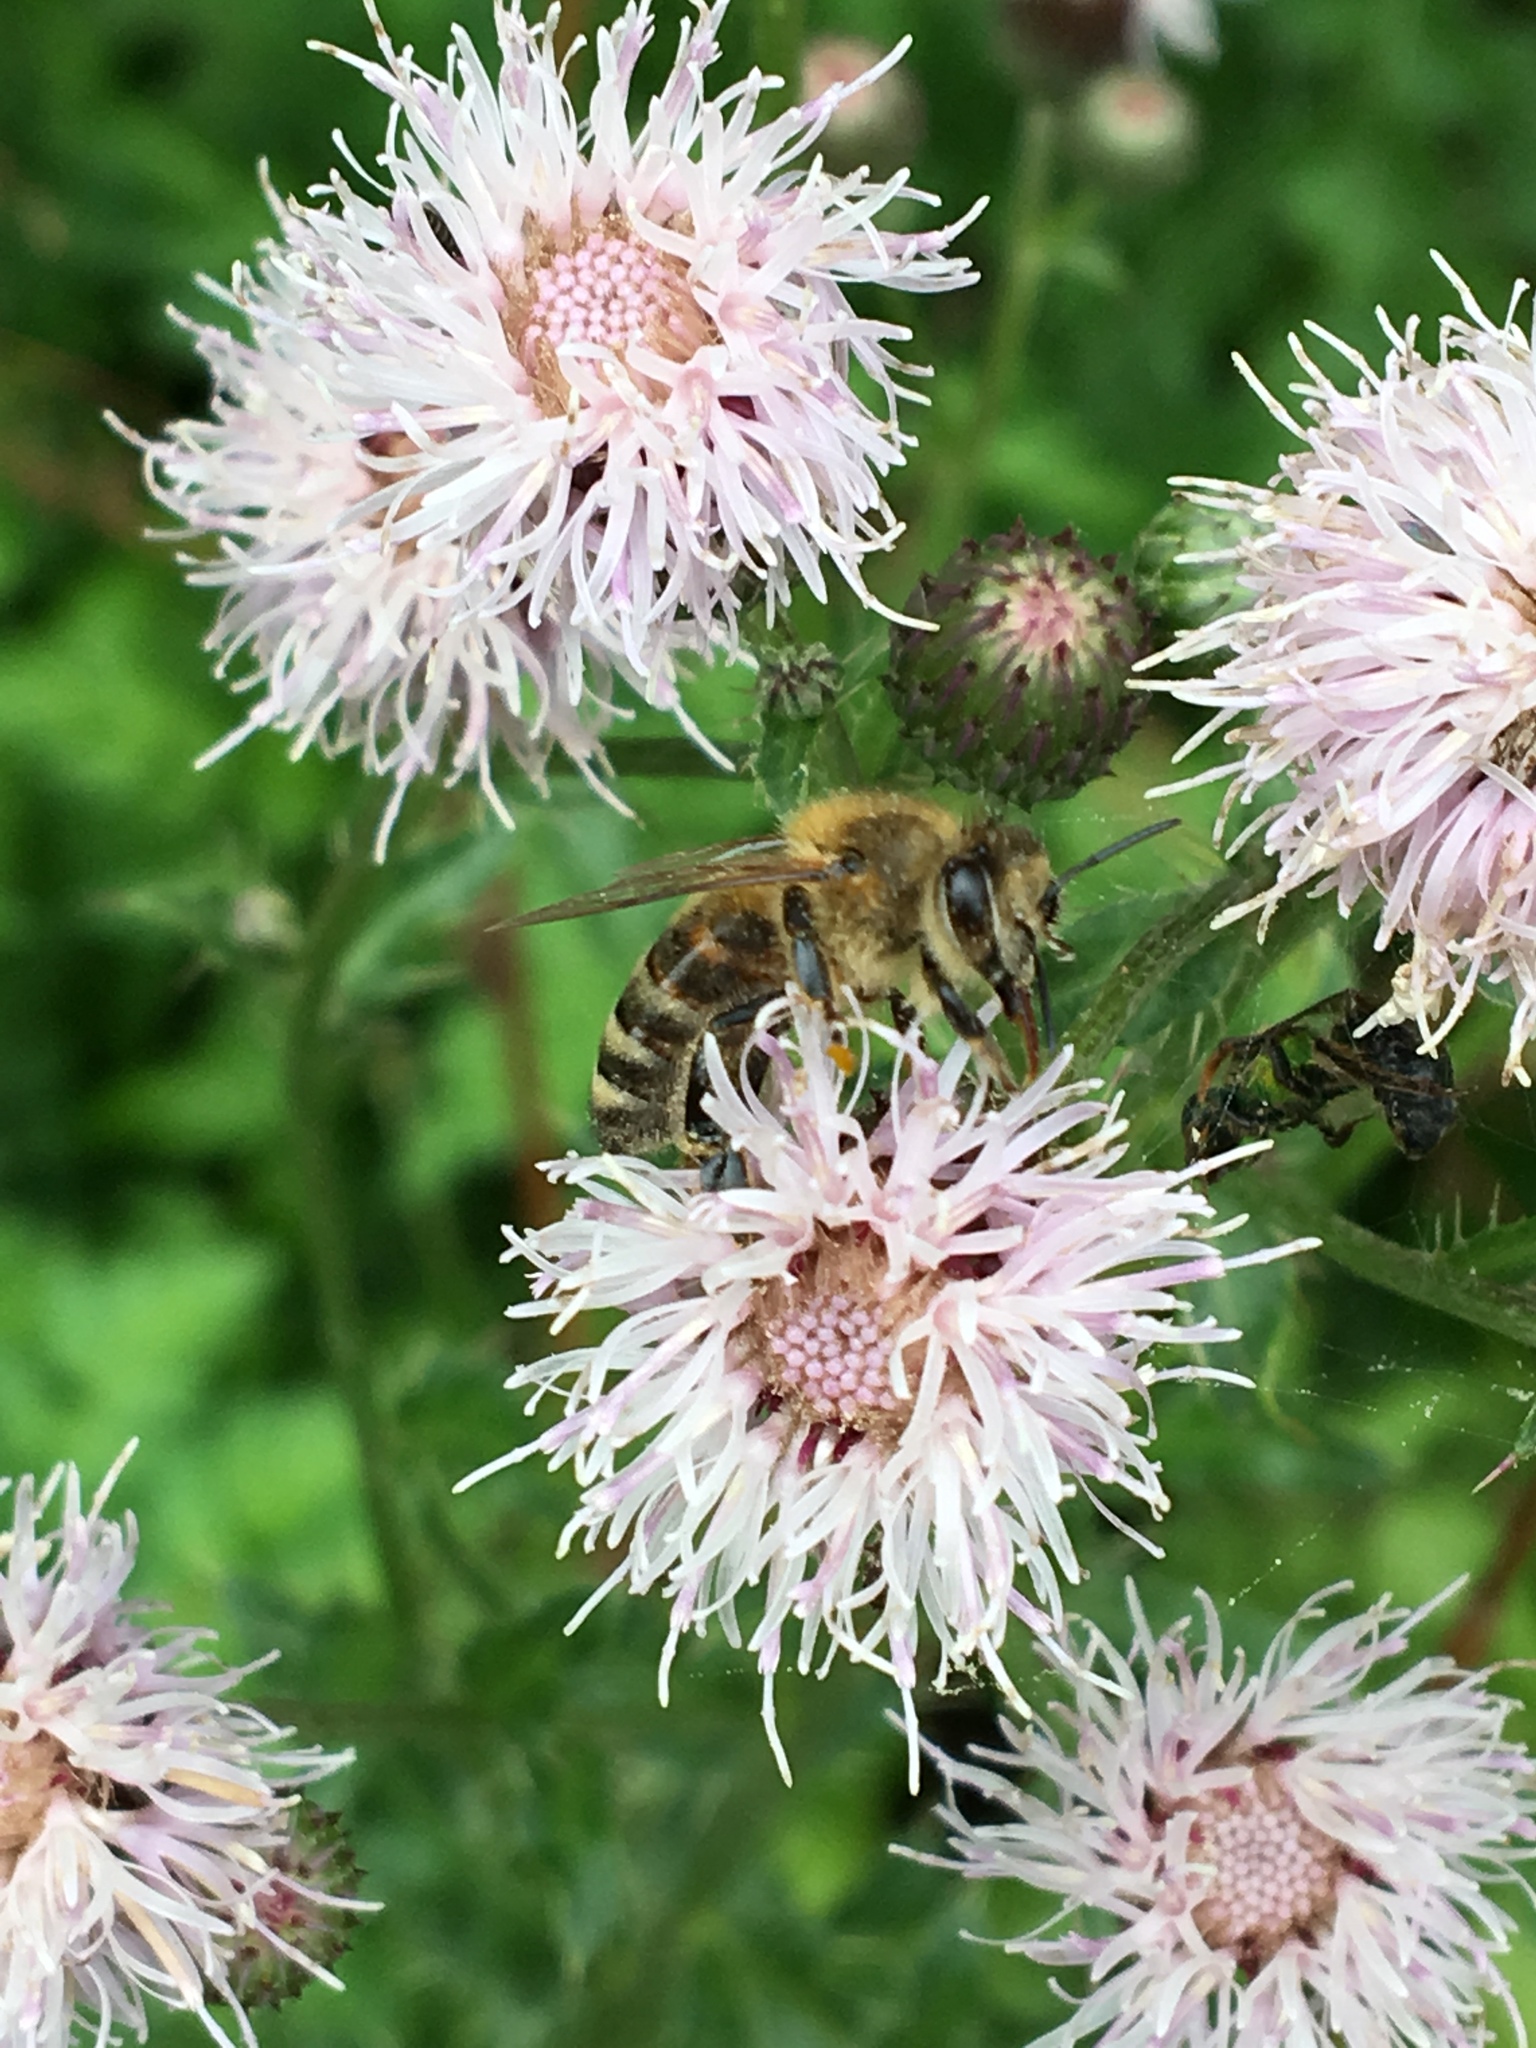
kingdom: Animalia
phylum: Arthropoda
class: Insecta
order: Hymenoptera
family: Apidae
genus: Apis
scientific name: Apis mellifera
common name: Honey bee
